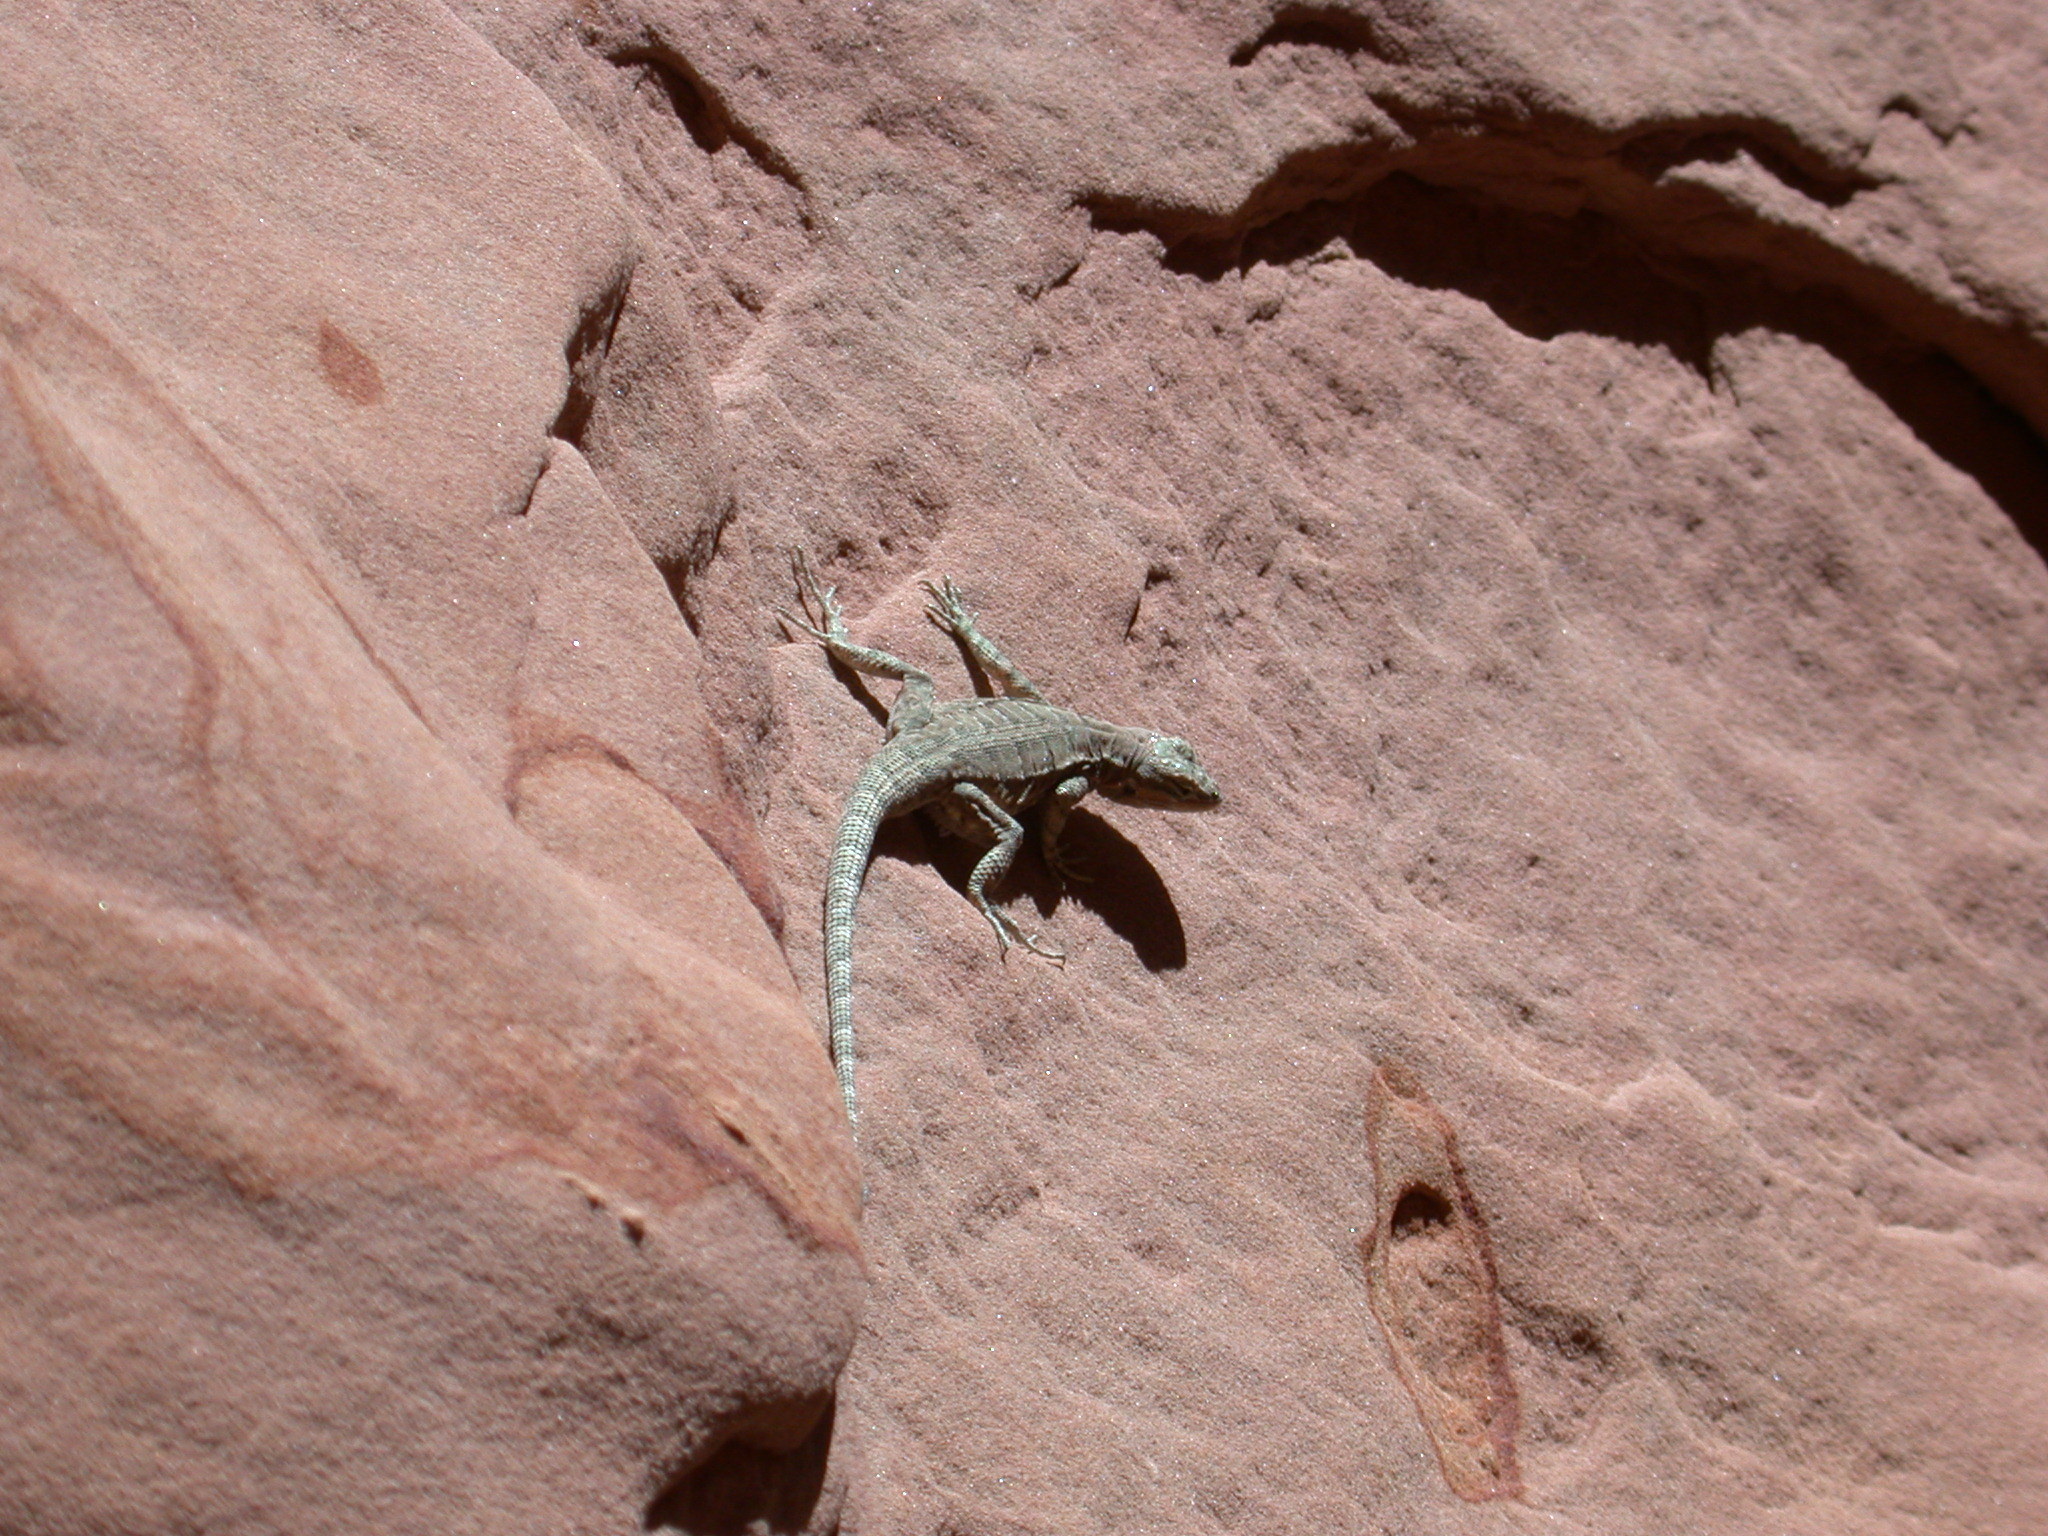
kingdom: Animalia
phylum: Chordata
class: Squamata
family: Phrynosomatidae
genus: Urosaurus
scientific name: Urosaurus ornatus
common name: Ornate tree lizard
